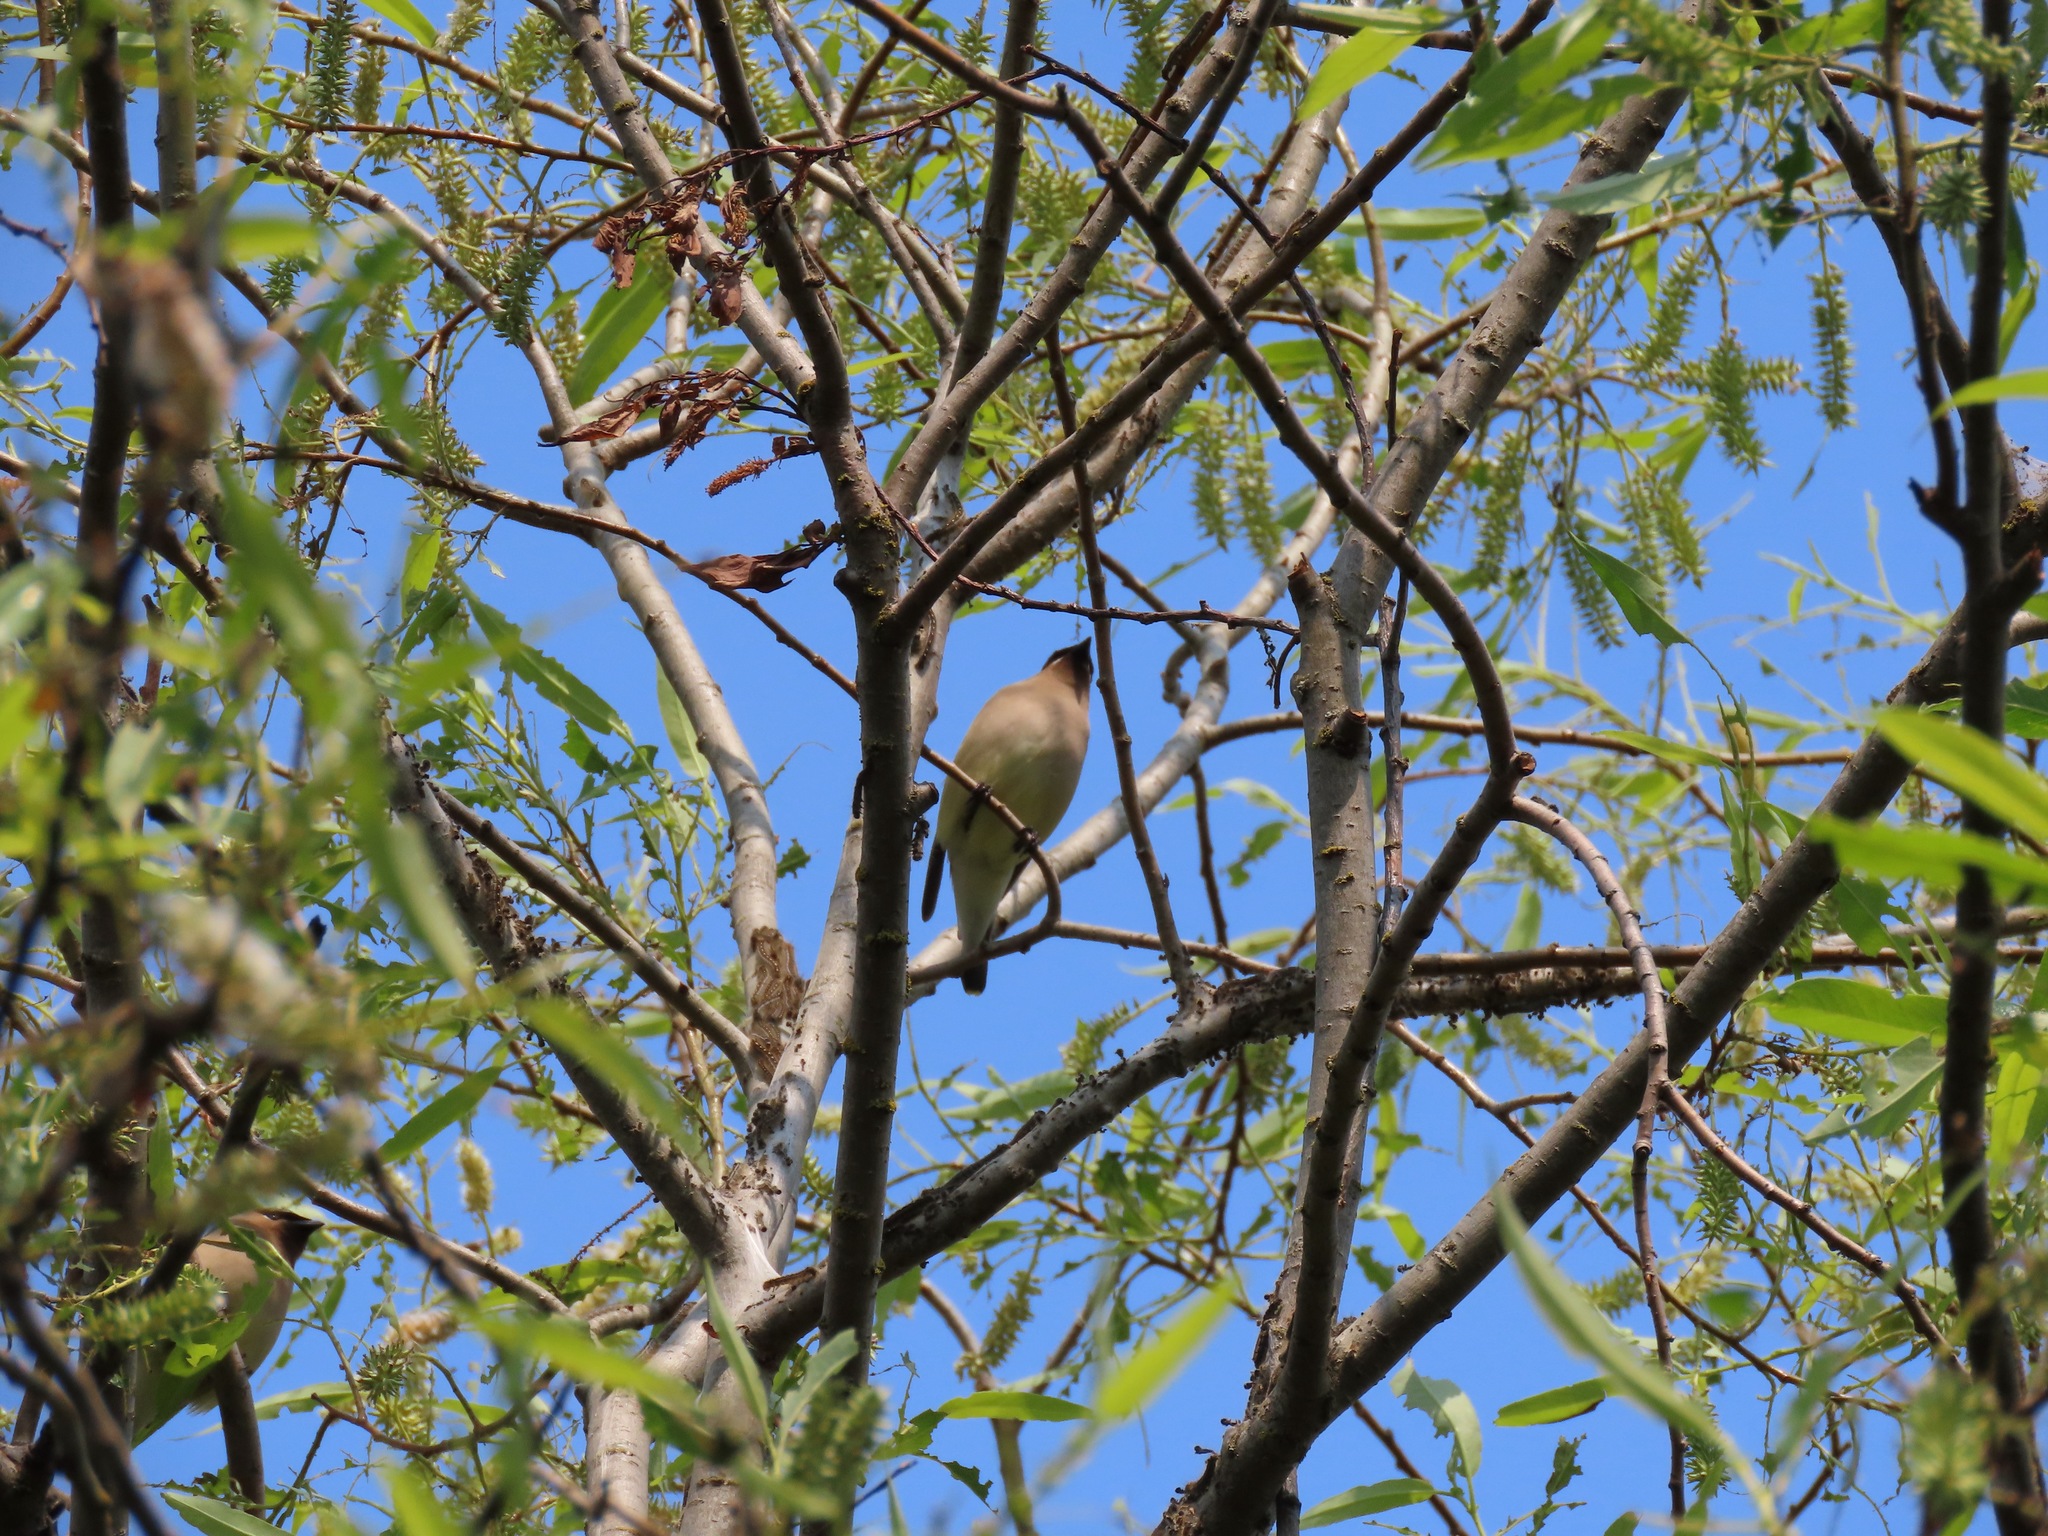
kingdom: Animalia
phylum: Chordata
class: Aves
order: Passeriformes
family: Bombycillidae
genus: Bombycilla
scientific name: Bombycilla cedrorum
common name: Cedar waxwing
